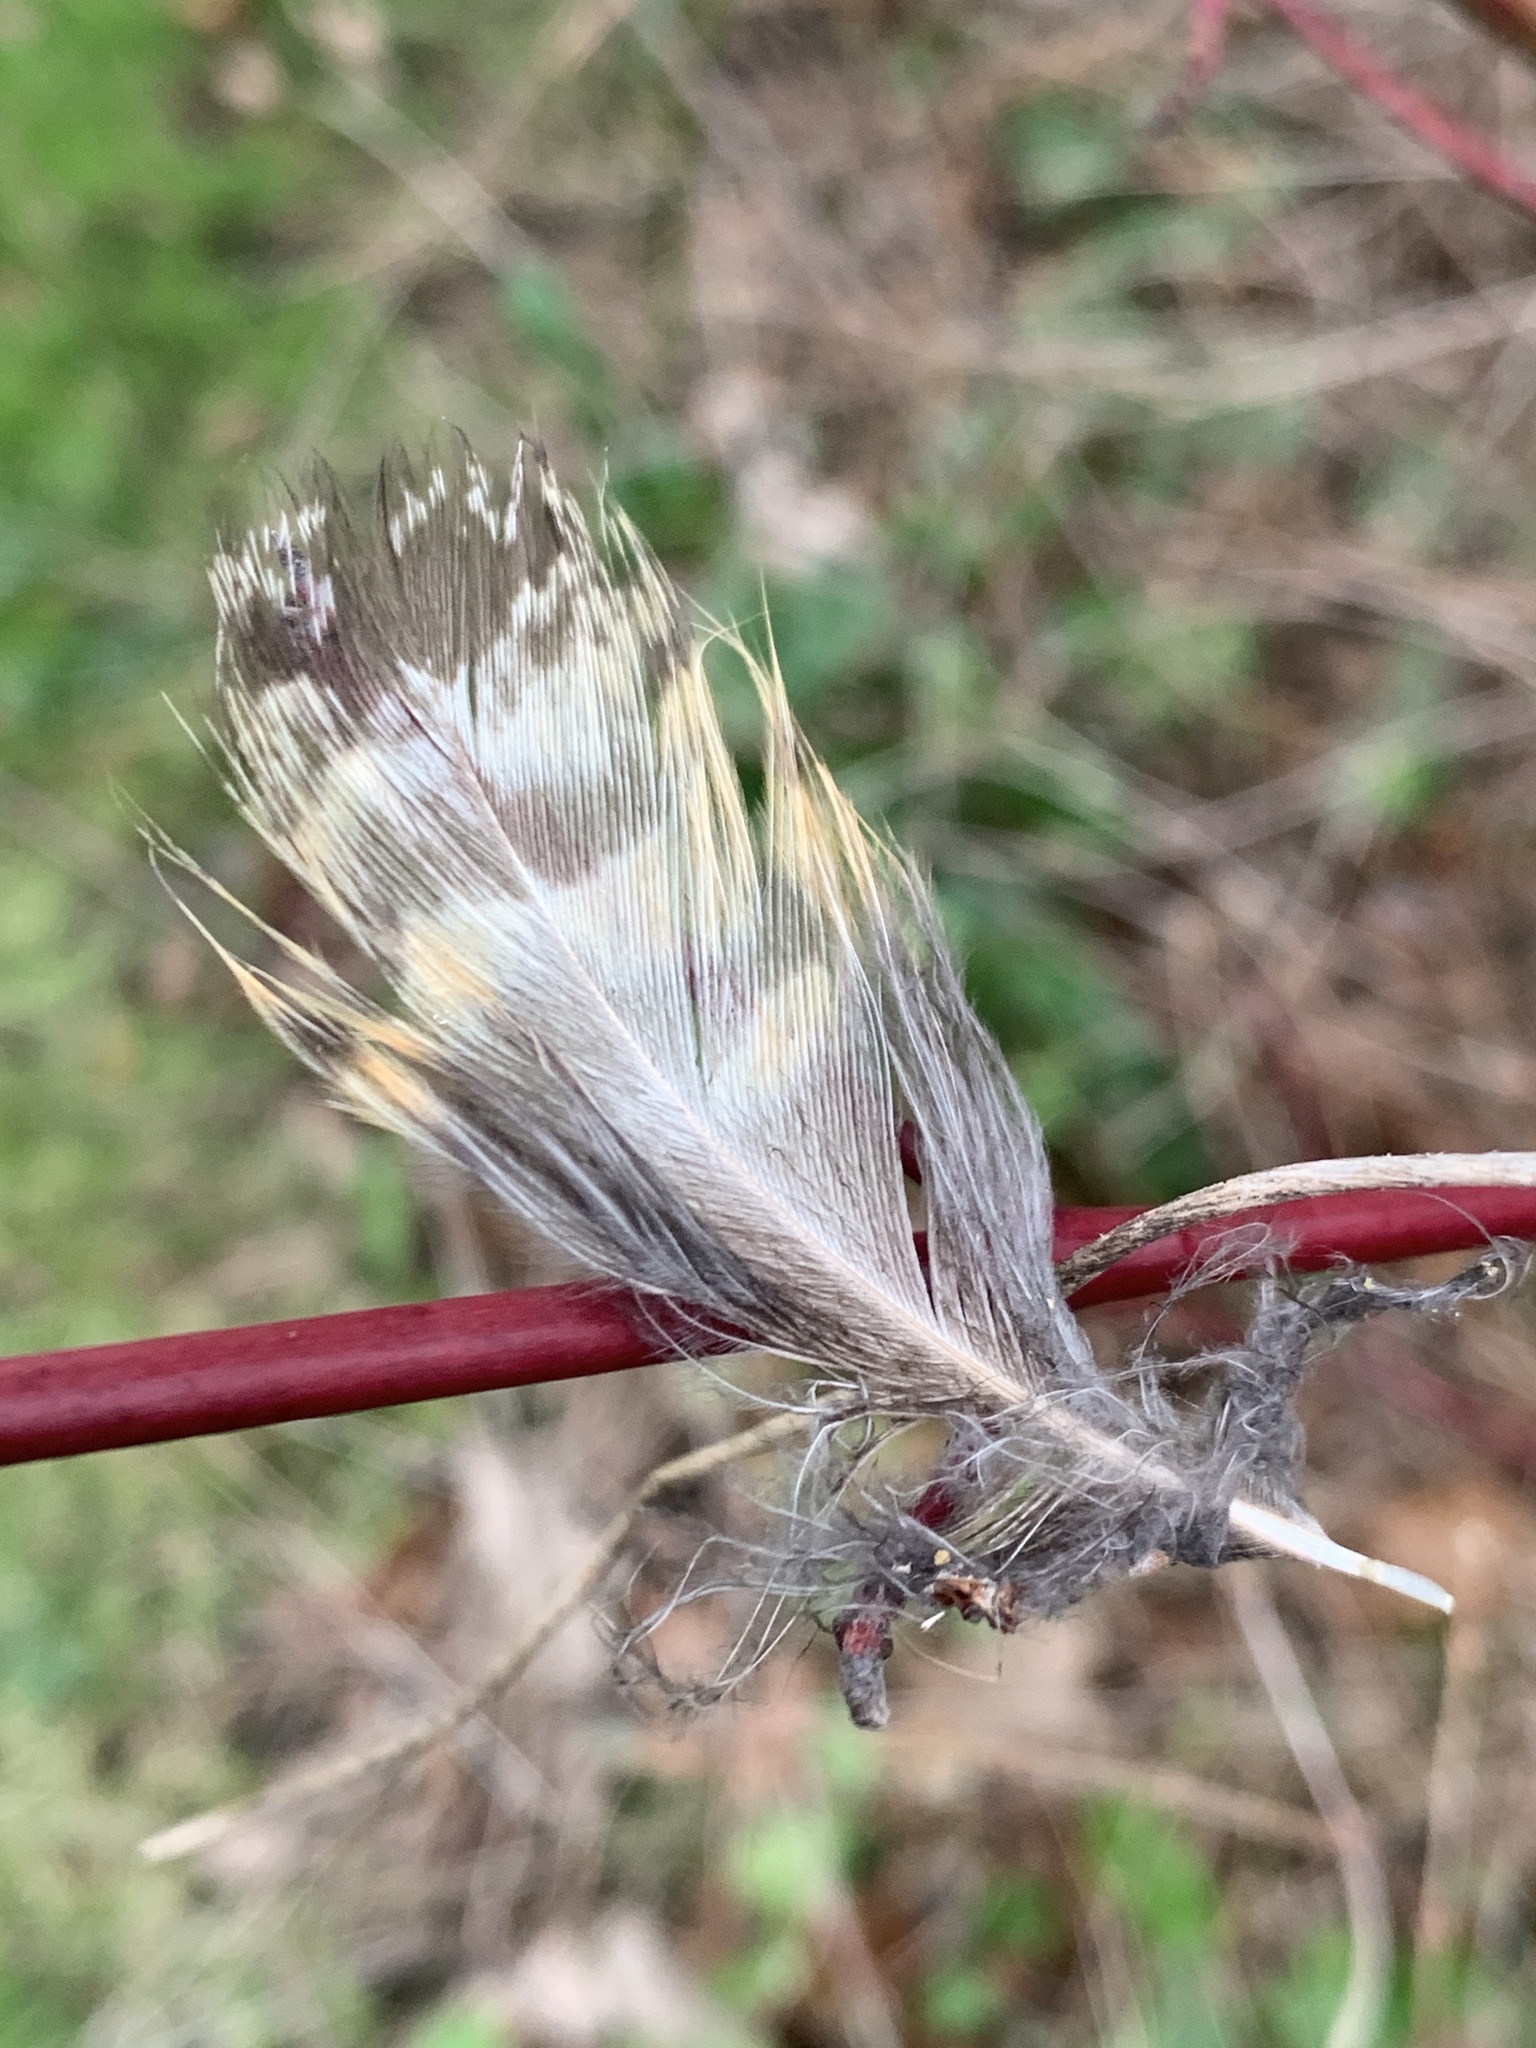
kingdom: Animalia
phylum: Chordata
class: Aves
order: Strigiformes
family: Strigidae
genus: Bubo
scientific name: Bubo virginianus
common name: Great horned owl
